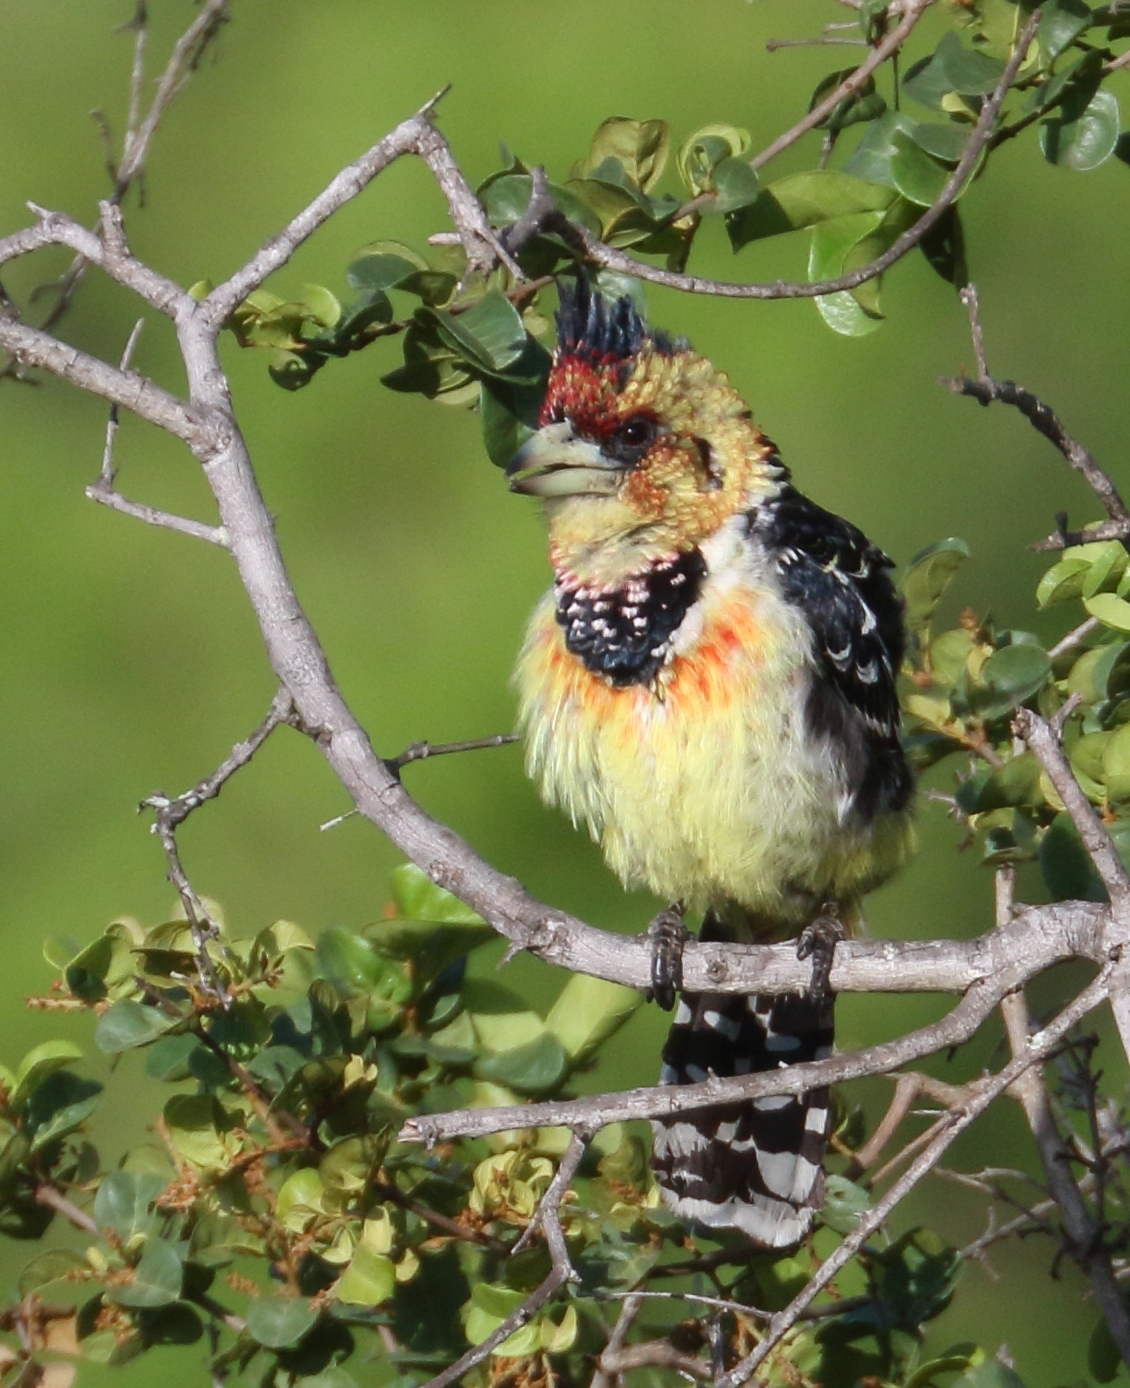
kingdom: Animalia
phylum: Chordata
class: Aves
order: Piciformes
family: Lybiidae
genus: Trachyphonus
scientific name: Trachyphonus vaillantii
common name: Crested barbet
